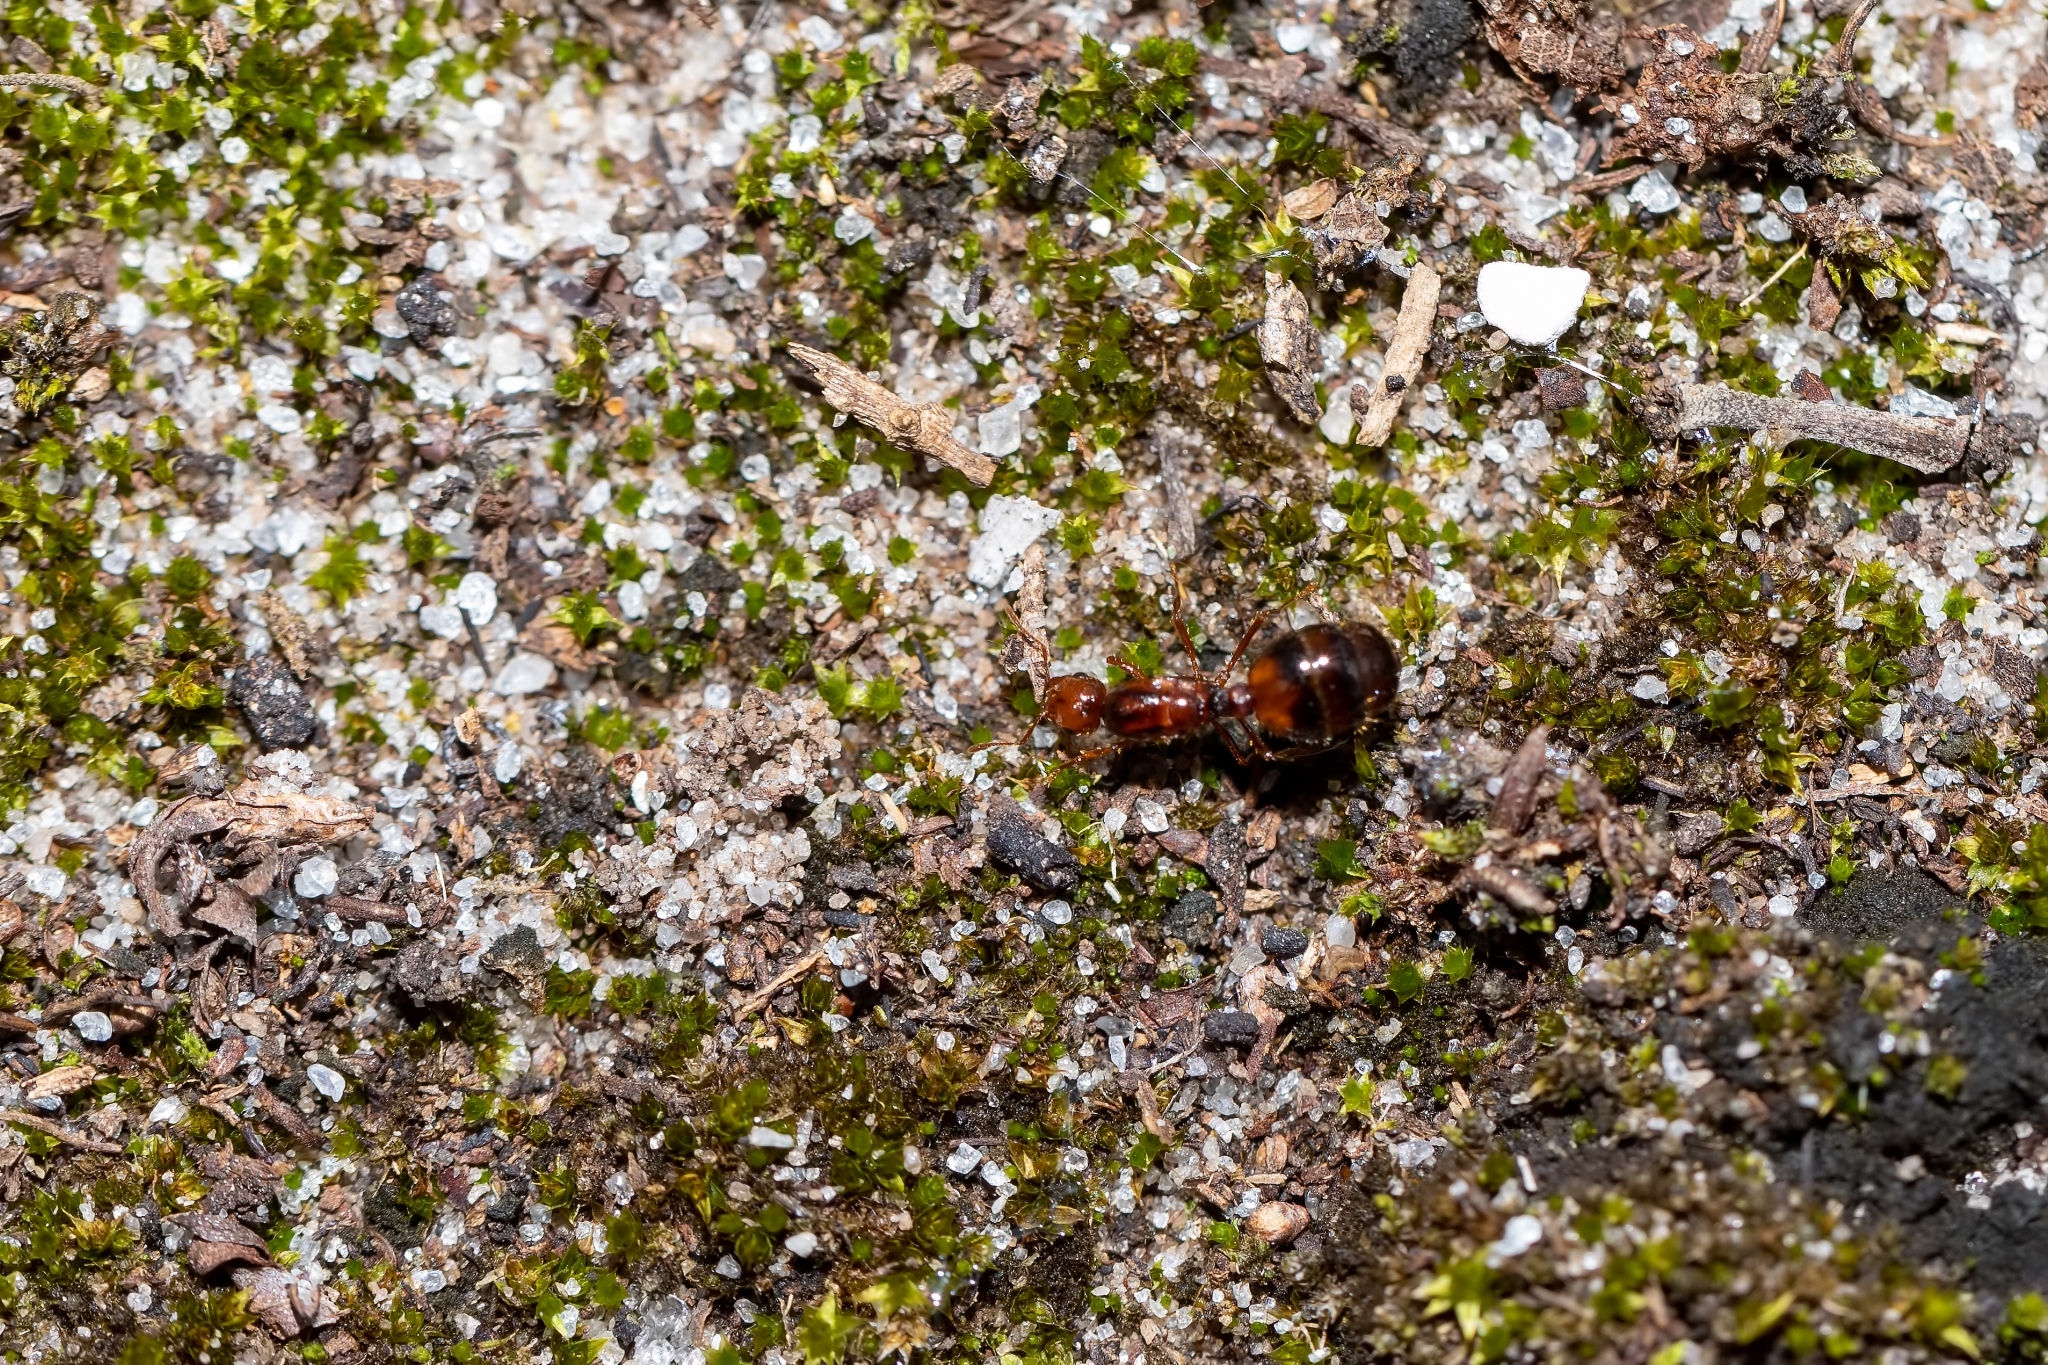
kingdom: Animalia
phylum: Arthropoda
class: Insecta
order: Hymenoptera
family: Formicidae
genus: Solenopsis
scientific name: Solenopsis invicta
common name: Red imported fire ant
